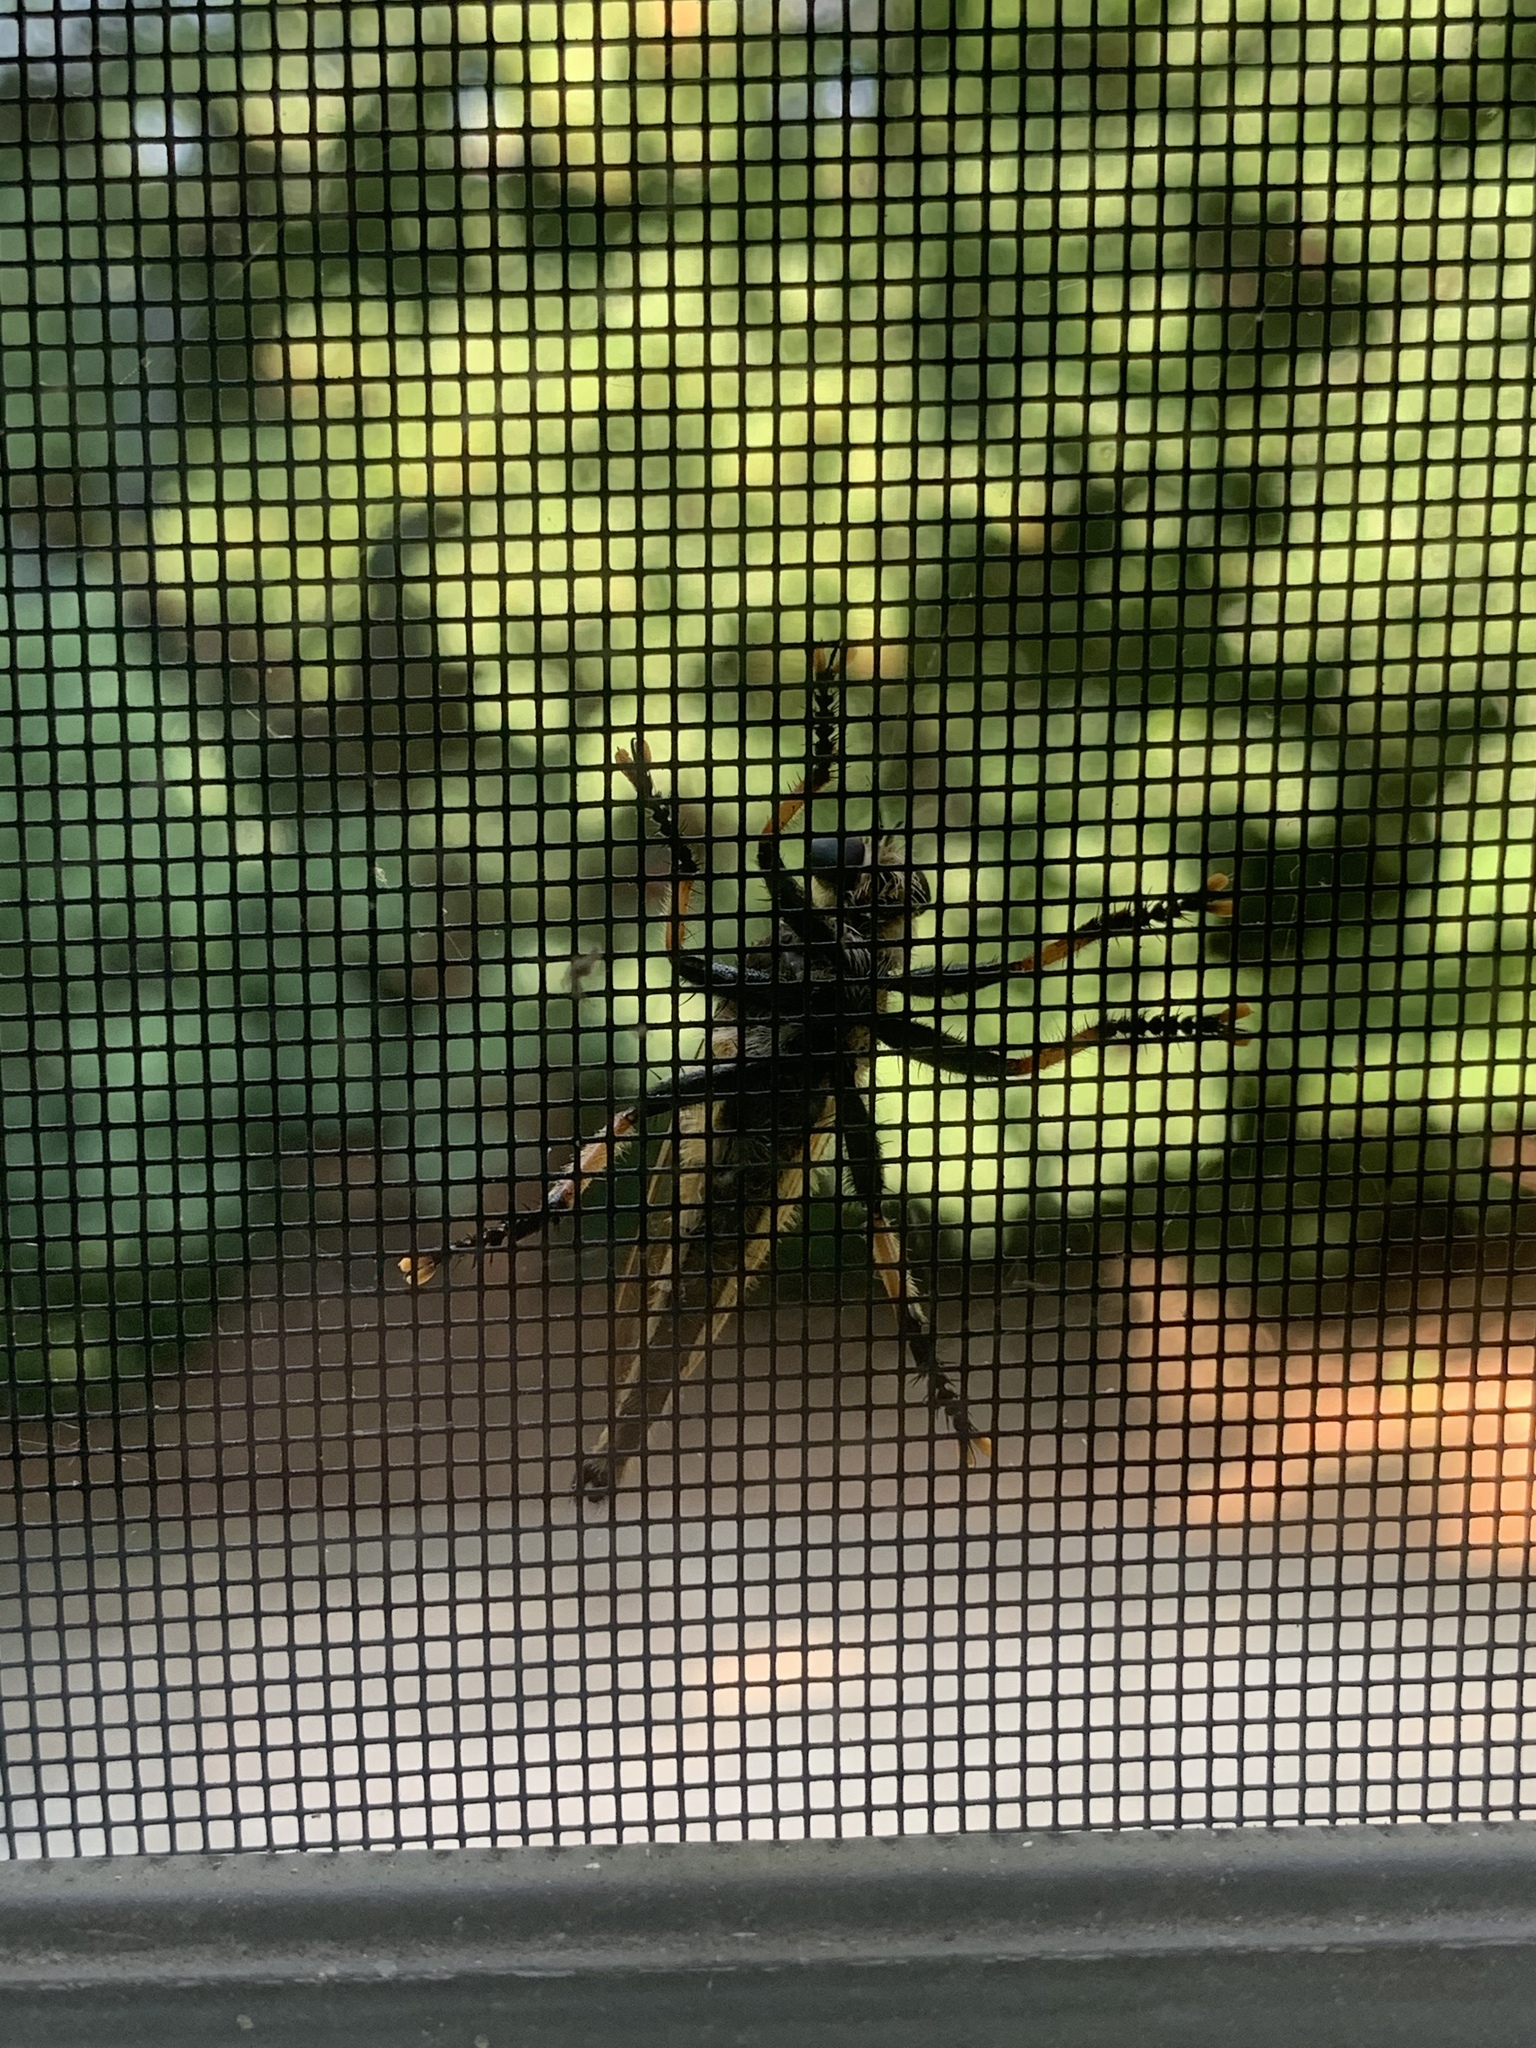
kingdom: Animalia
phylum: Arthropoda
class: Insecta
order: Diptera
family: Asilidae
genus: Promachus
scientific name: Promachus rufipes
